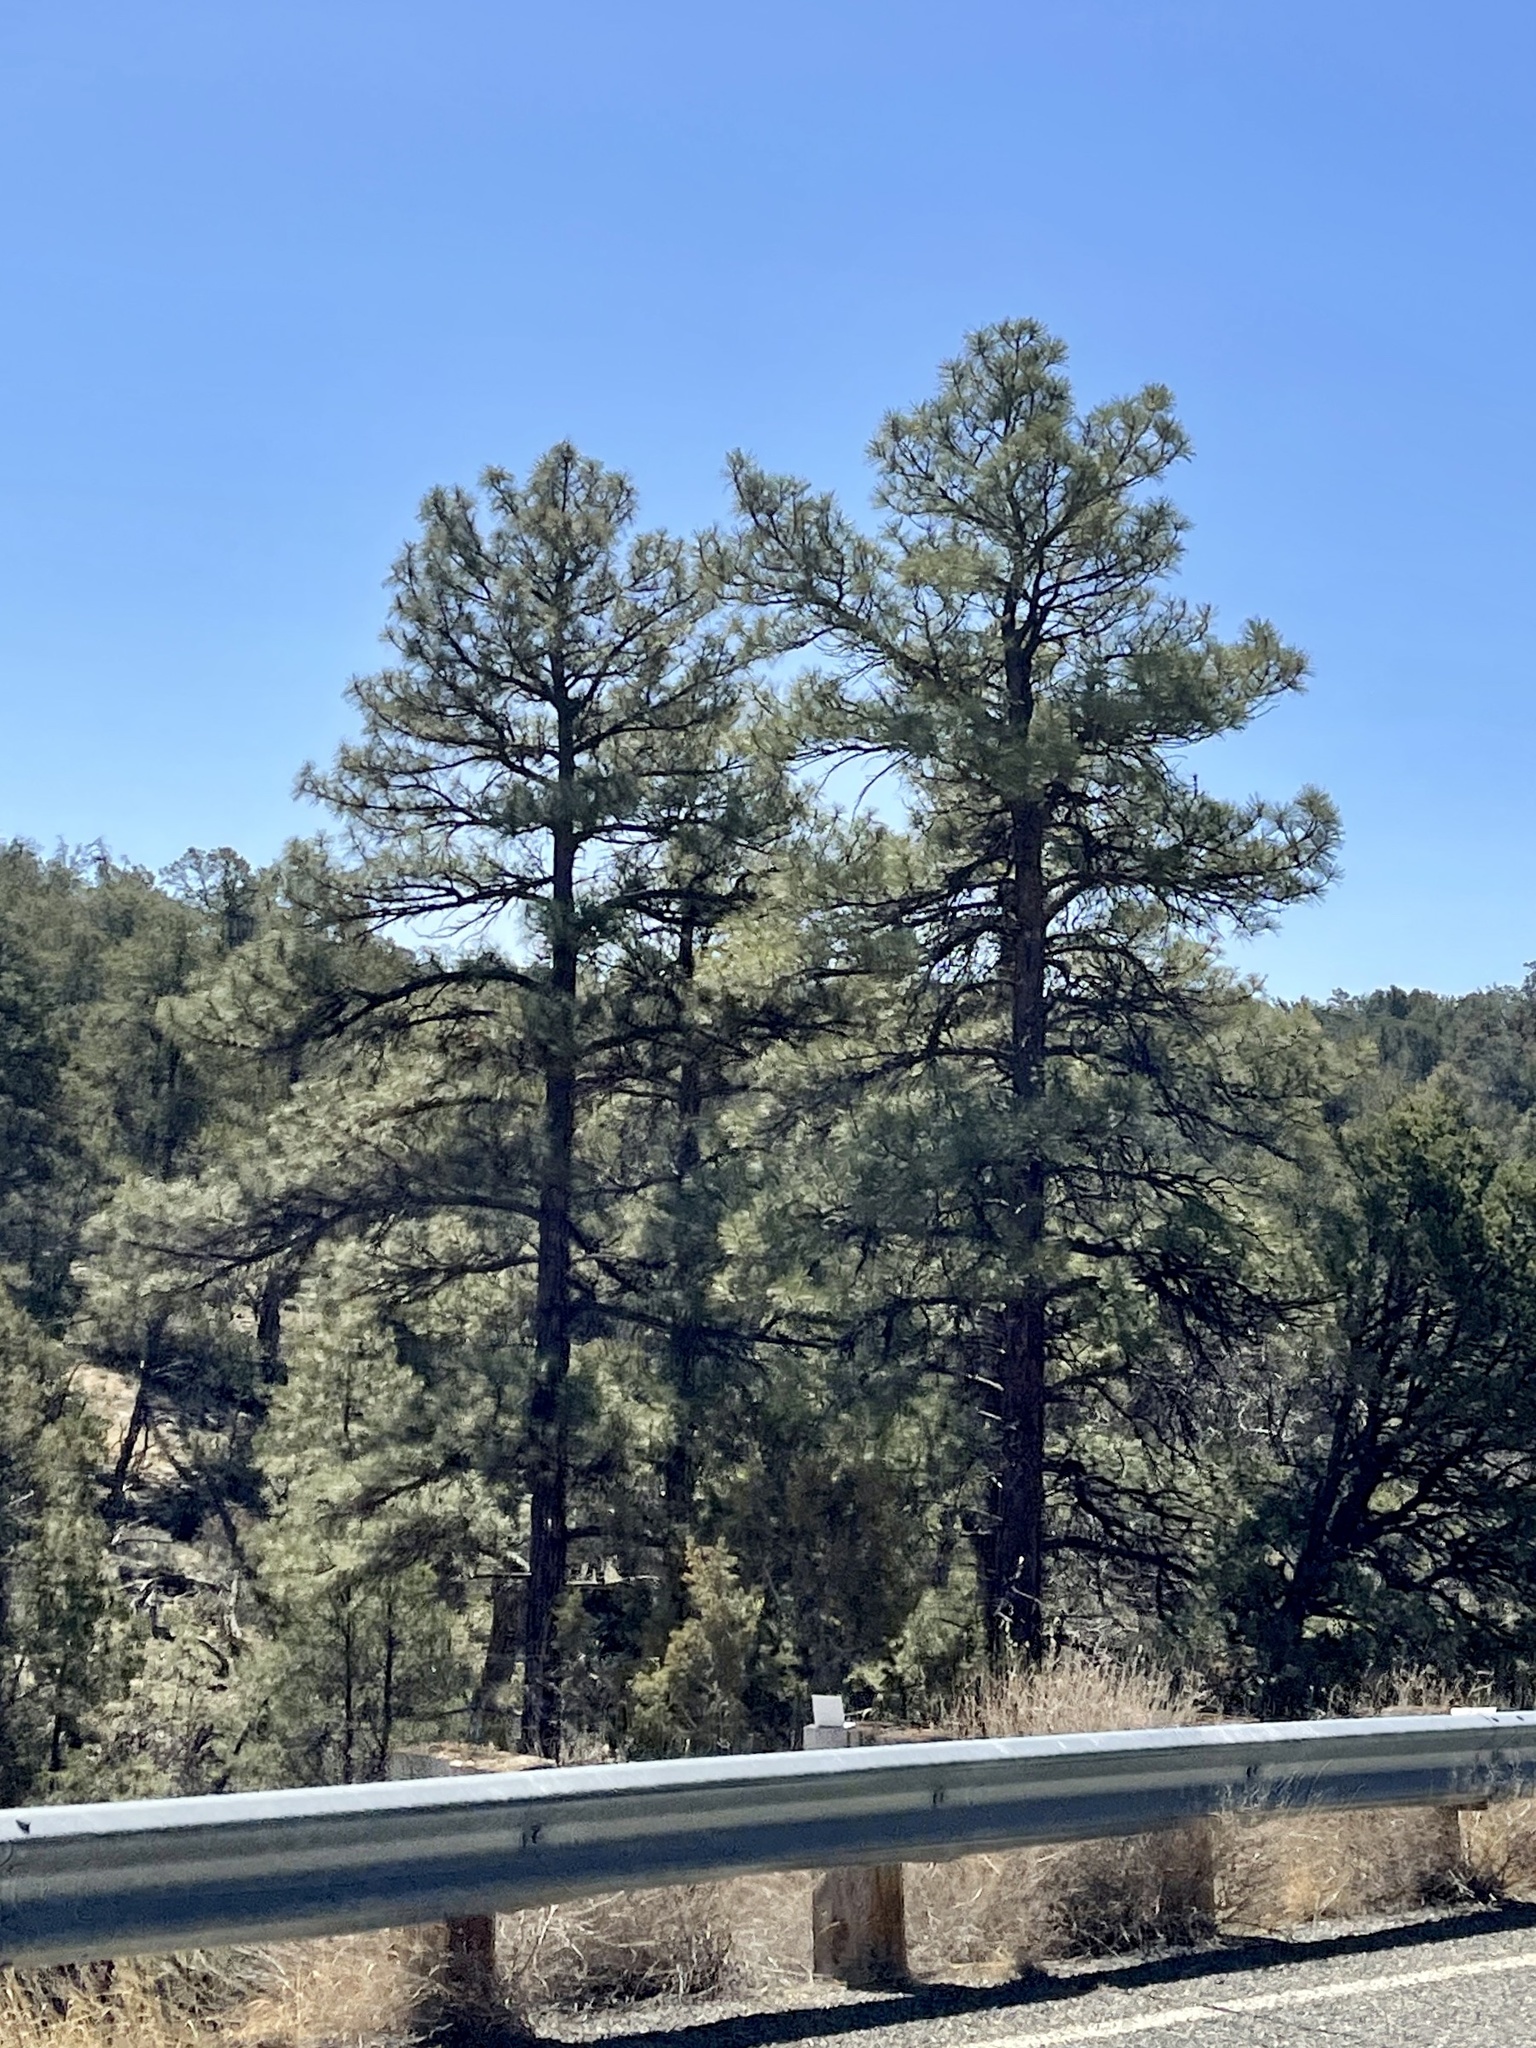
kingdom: Plantae
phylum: Tracheophyta
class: Pinopsida
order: Pinales
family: Pinaceae
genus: Pinus
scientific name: Pinus ponderosa
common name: Western yellow-pine
